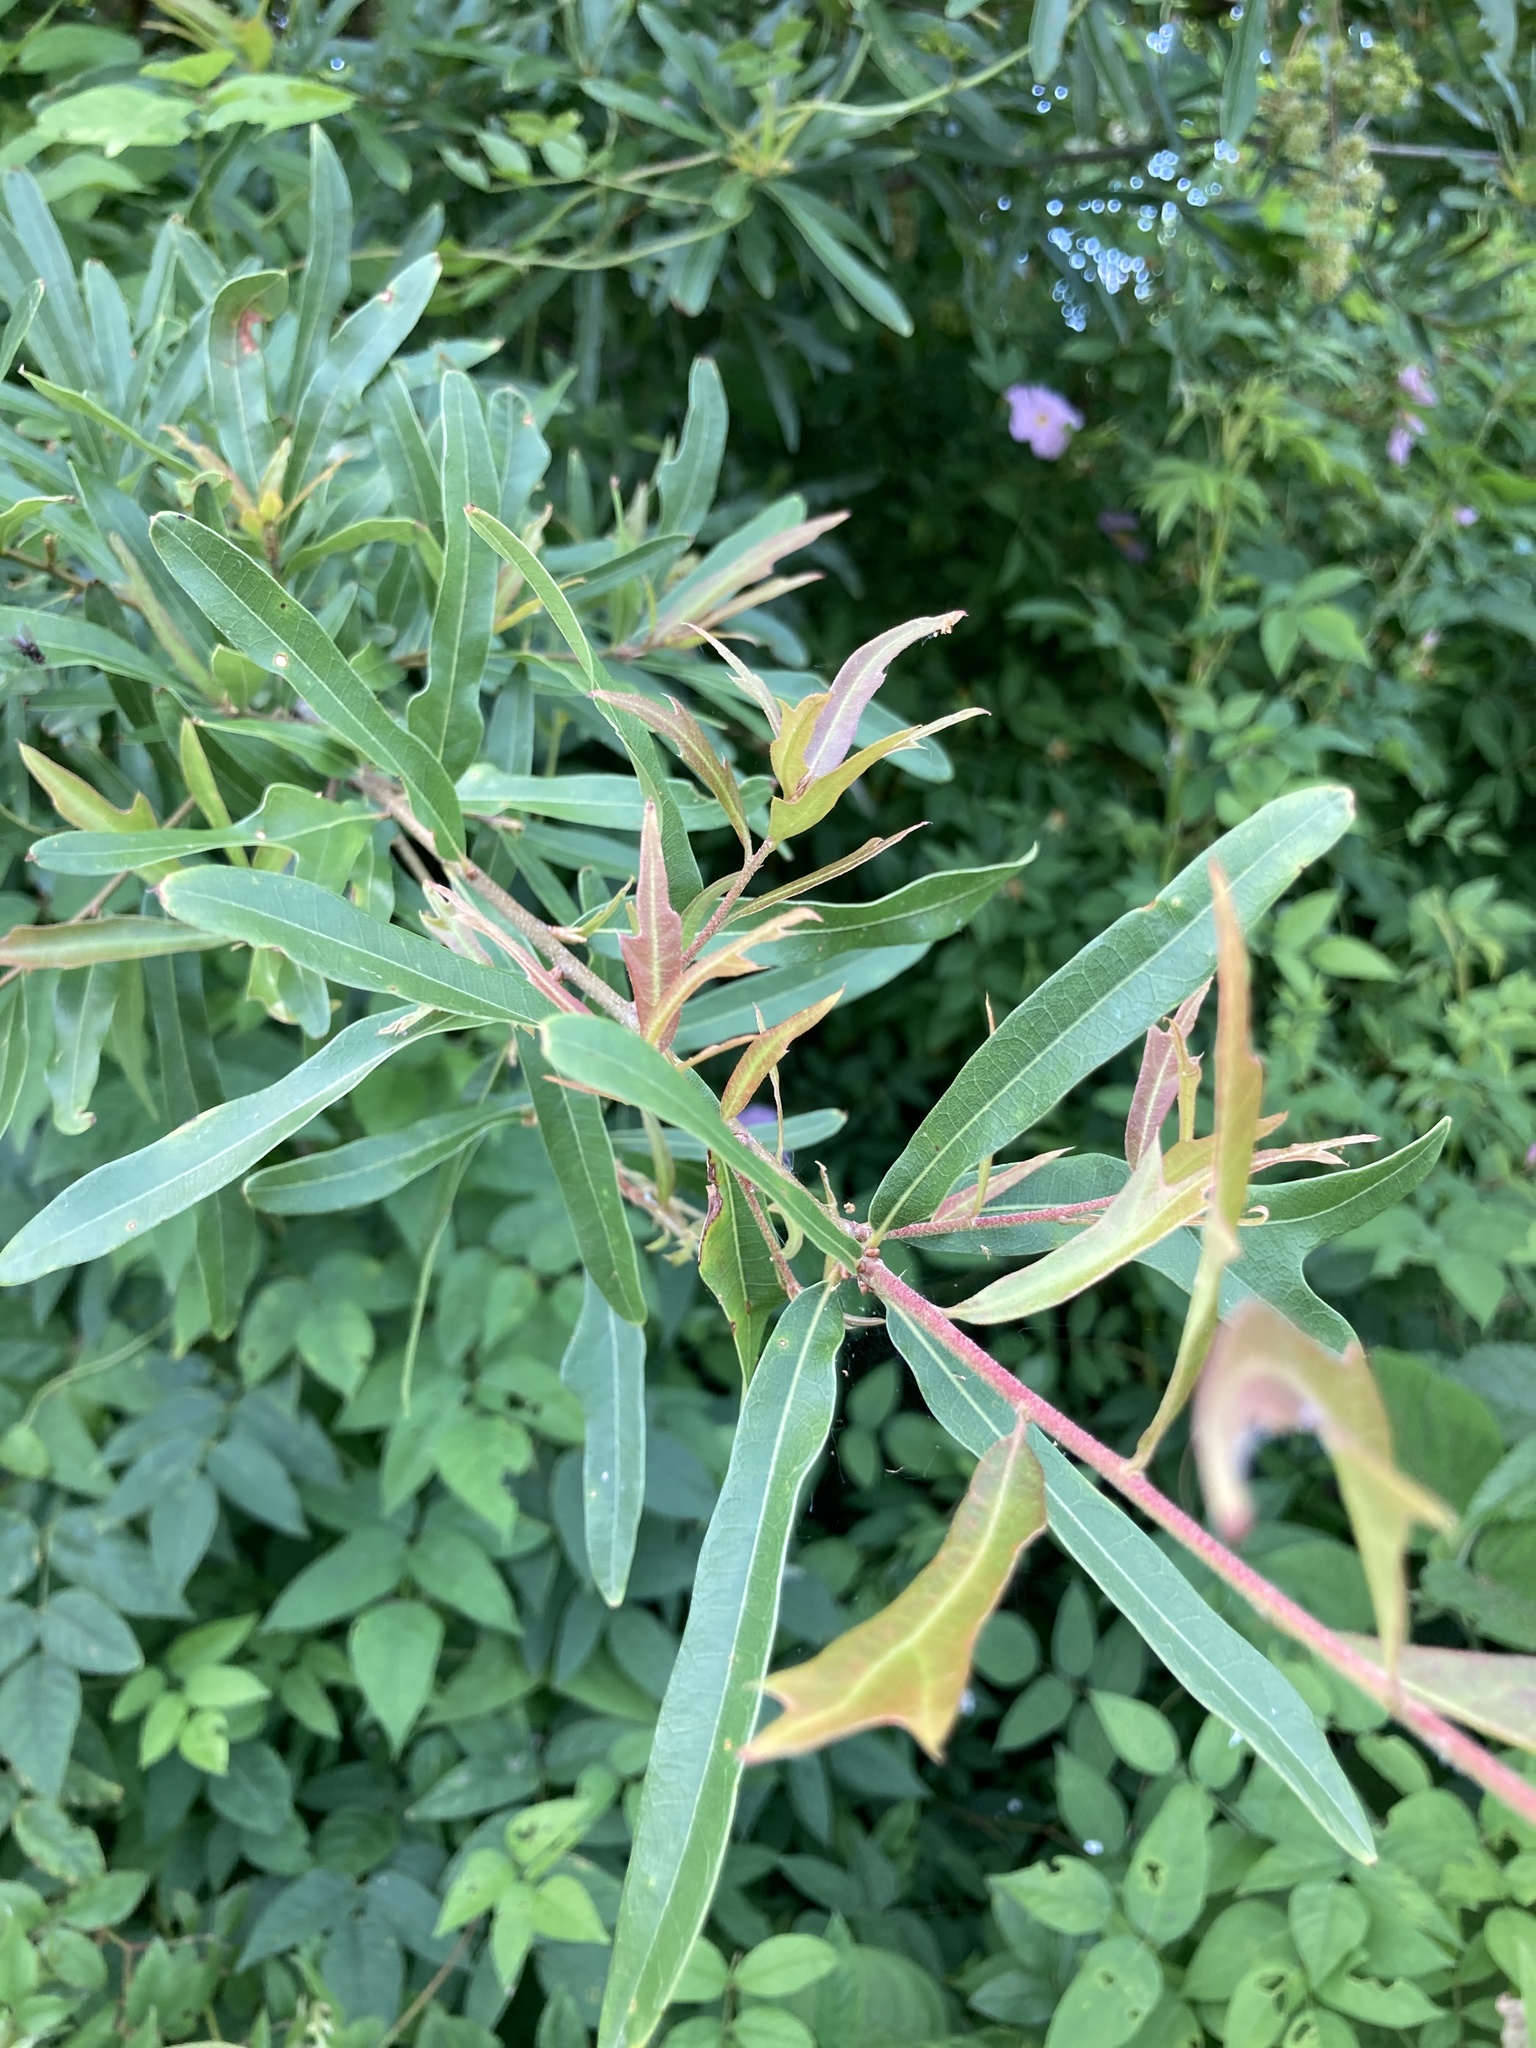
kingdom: Plantae
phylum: Tracheophyta
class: Magnoliopsida
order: Fagales
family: Fagaceae
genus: Quercus
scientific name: Quercus phellos
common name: Willow oak
